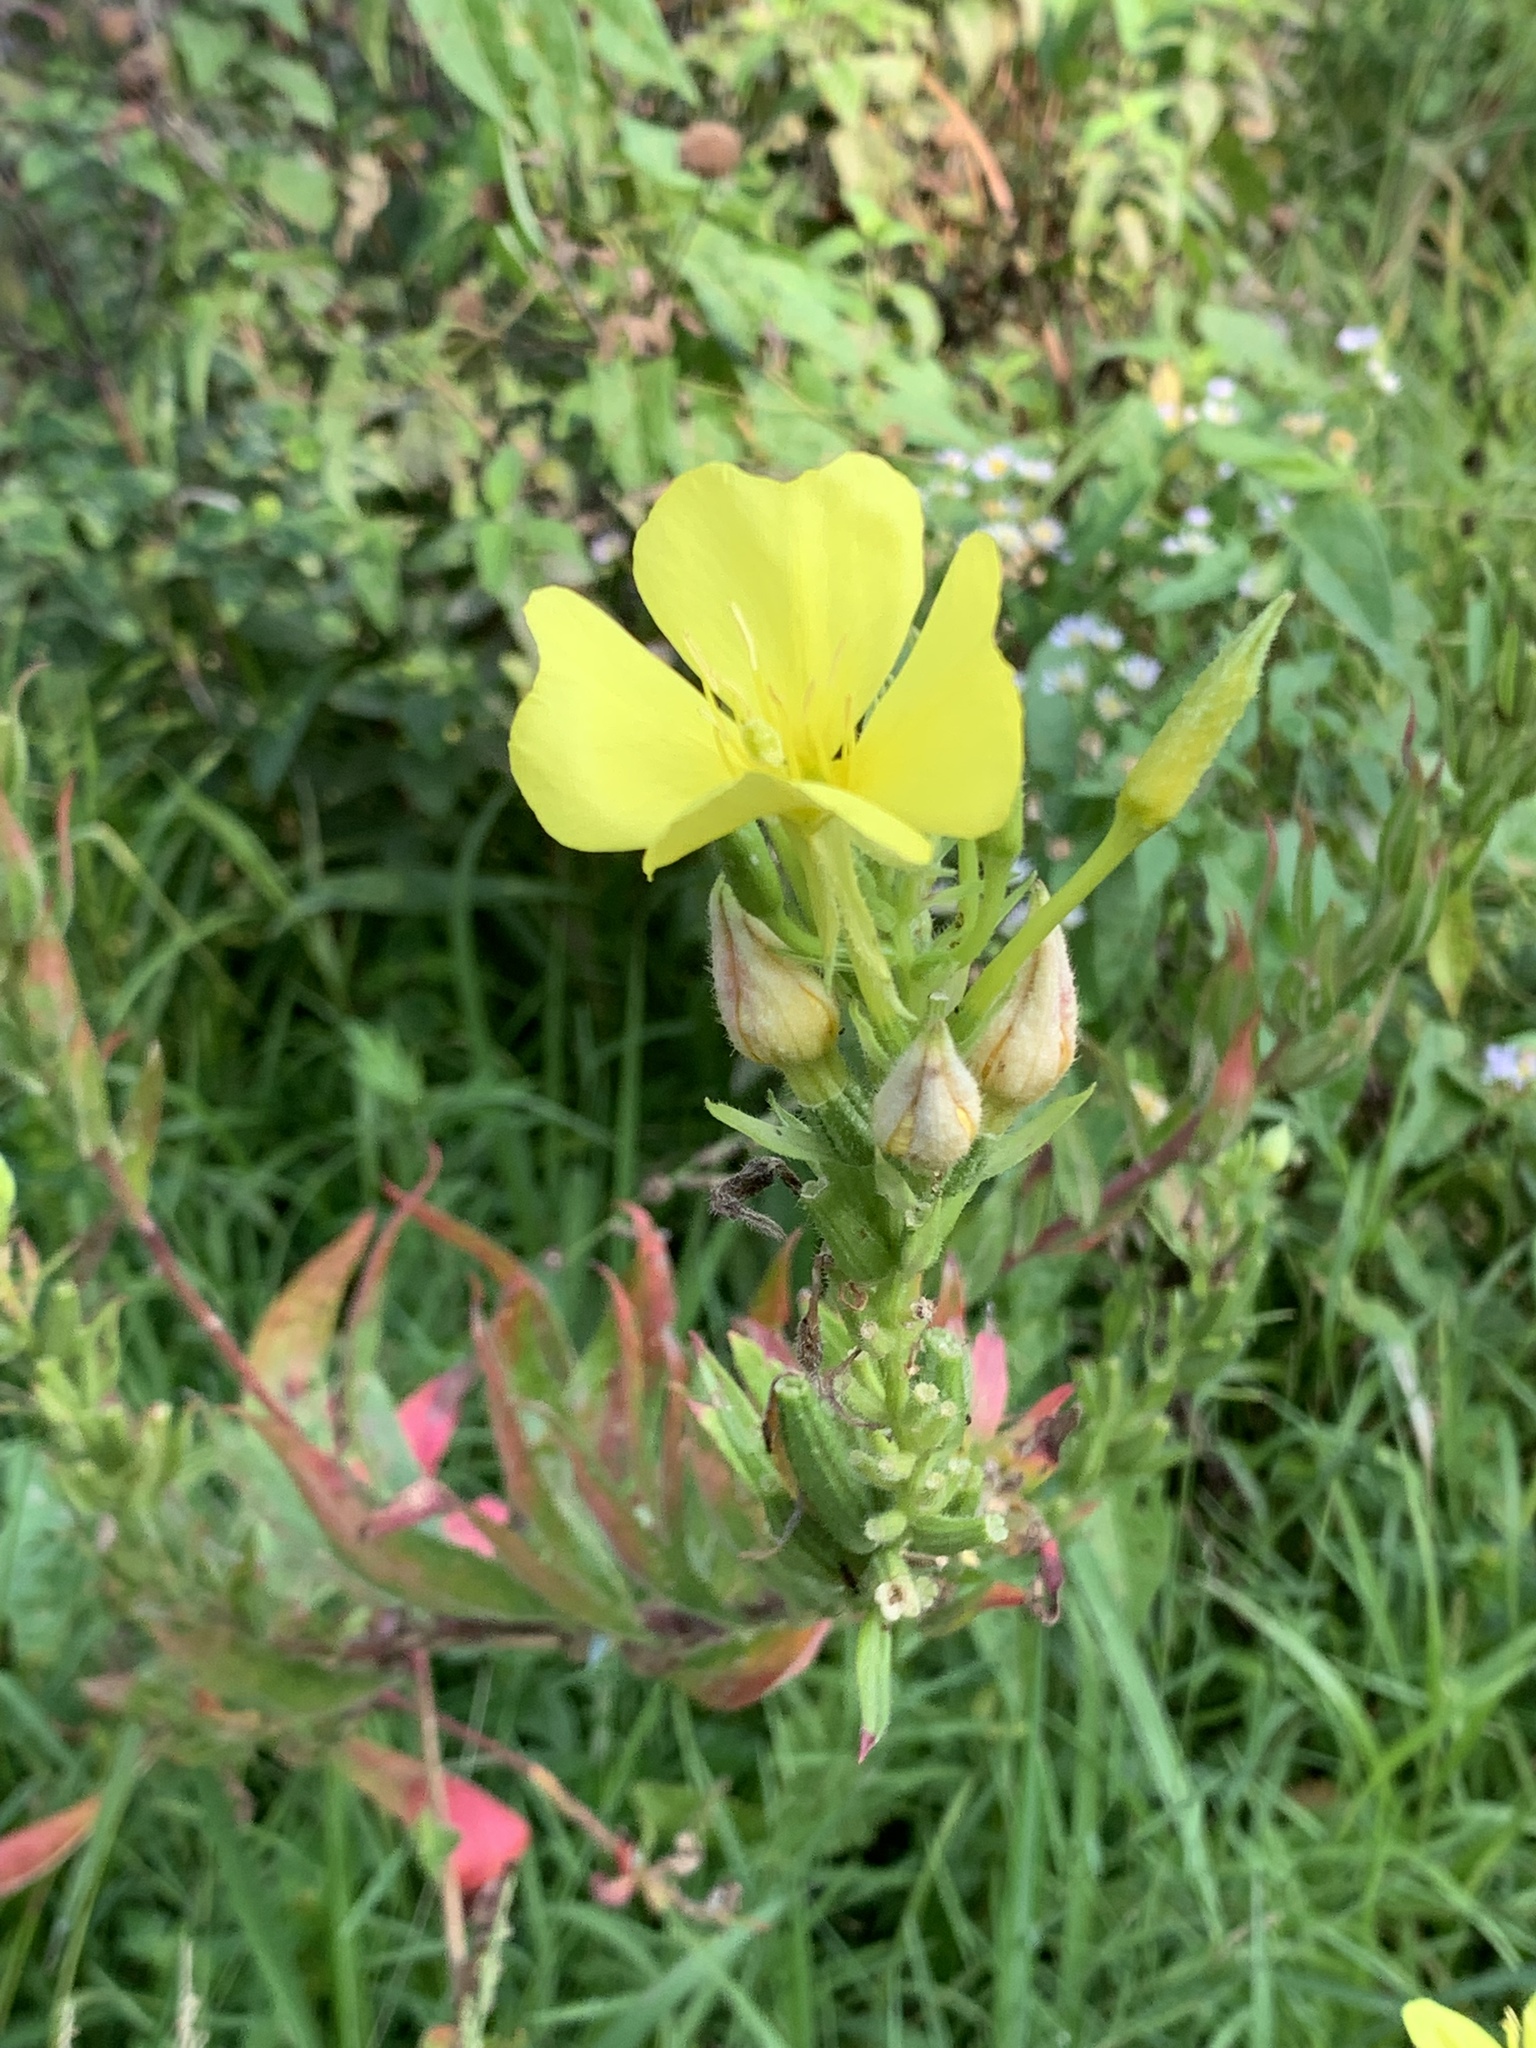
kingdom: Plantae
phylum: Tracheophyta
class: Magnoliopsida
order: Myrtales
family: Onagraceae
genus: Oenothera
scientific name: Oenothera biennis
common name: Common evening-primrose
